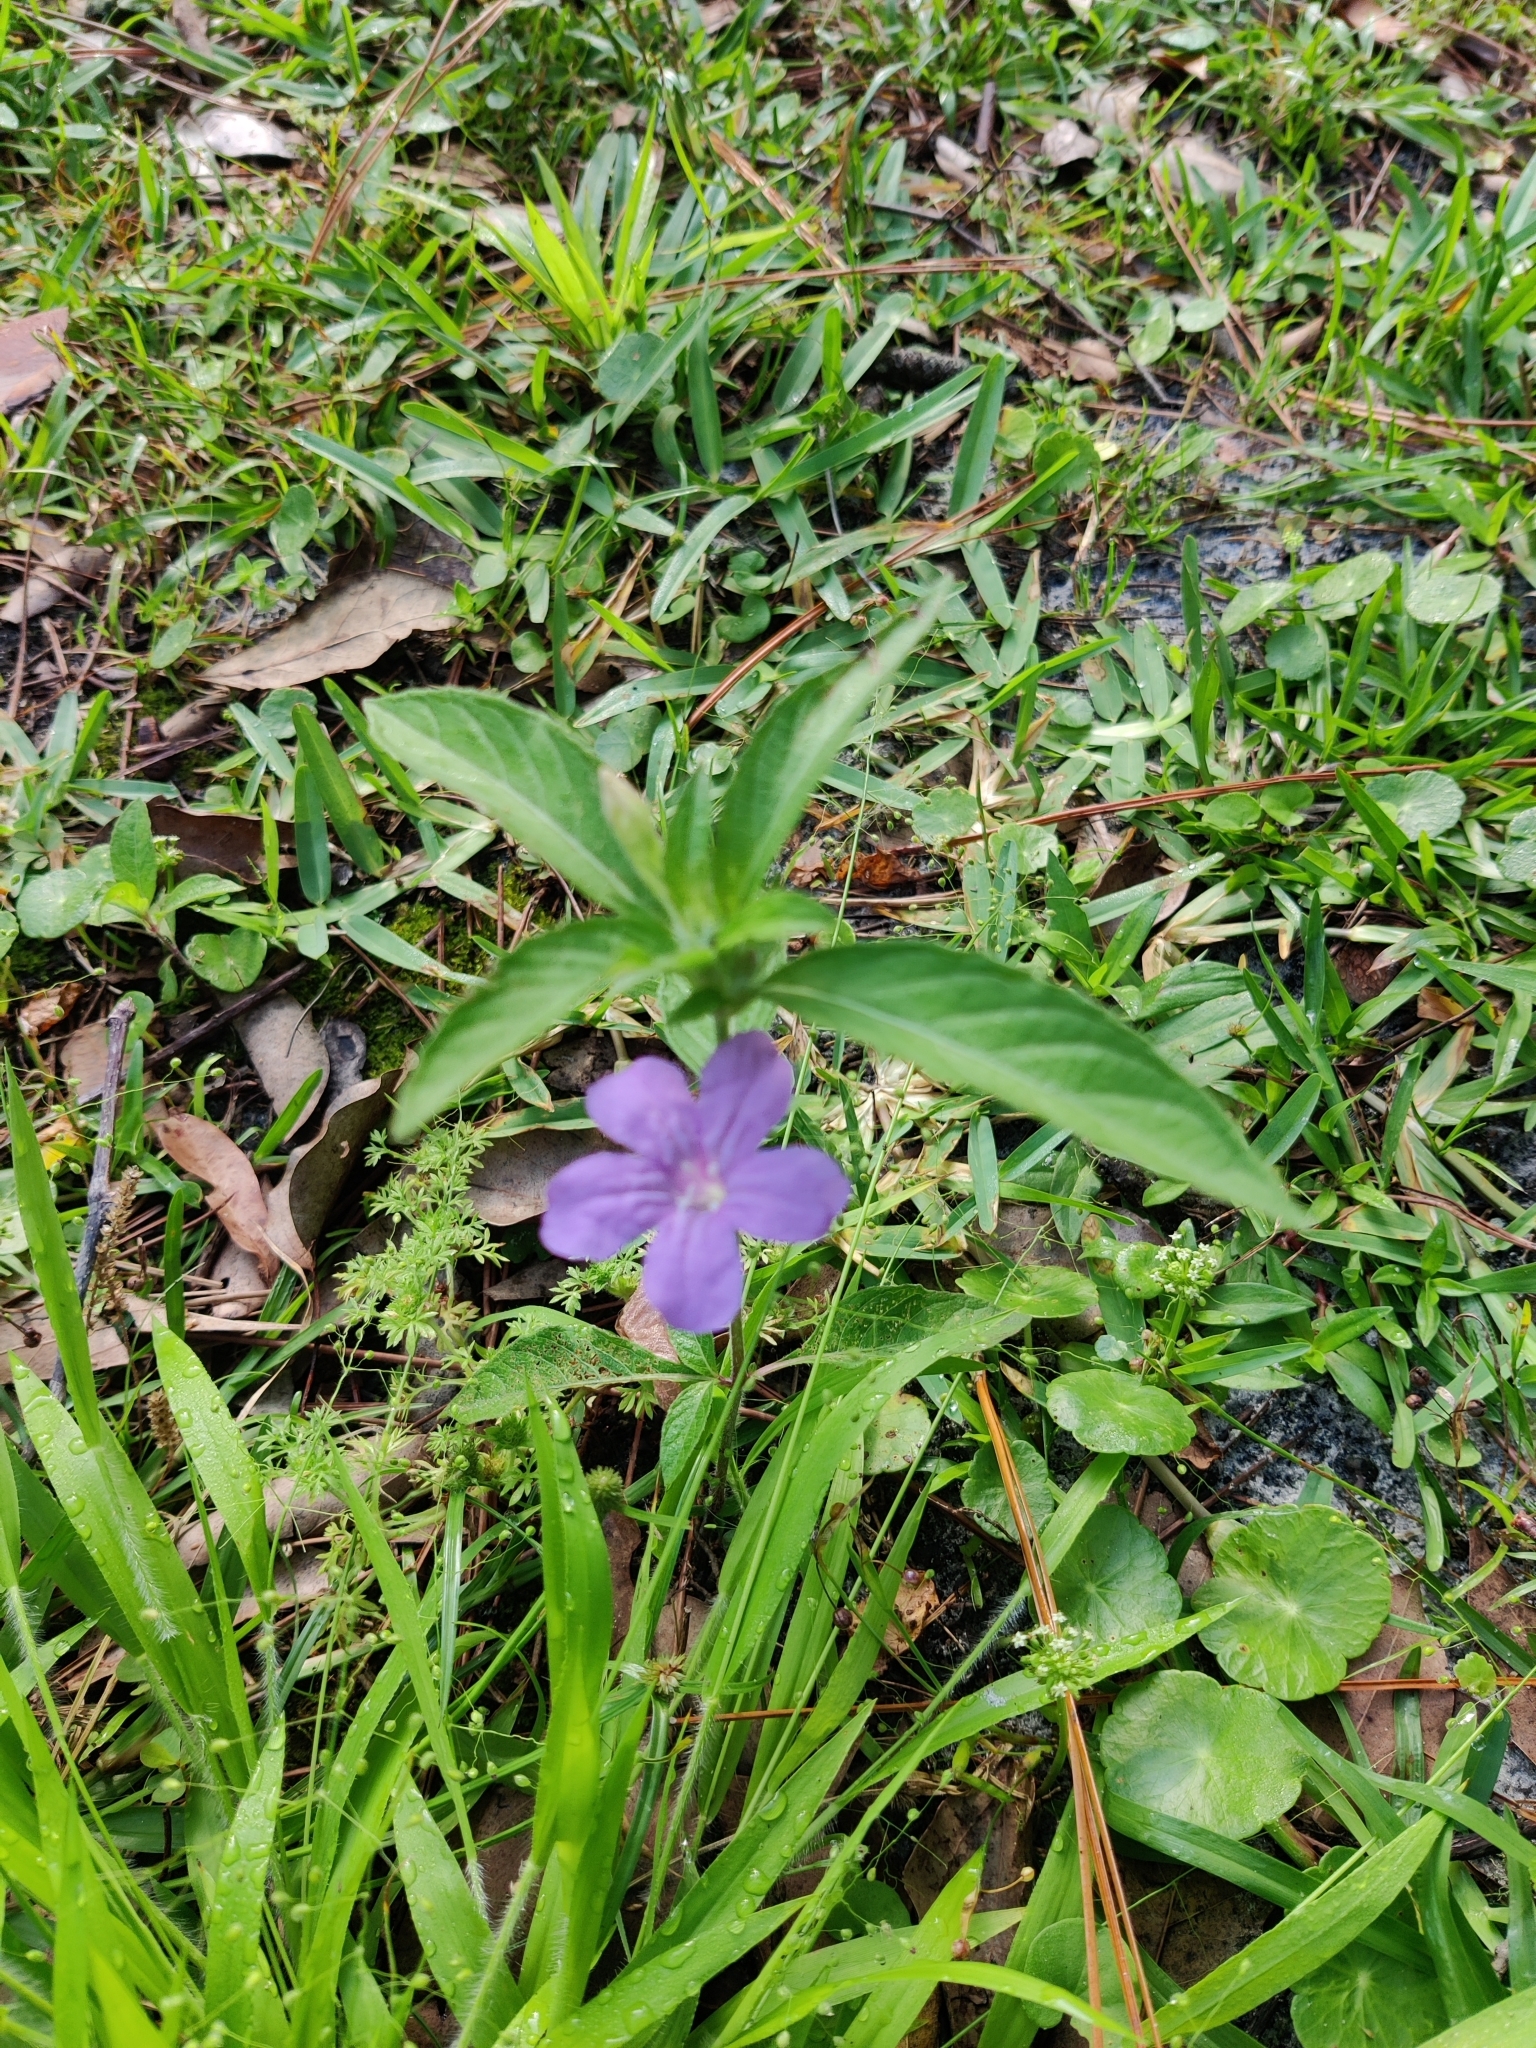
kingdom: Plantae
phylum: Tracheophyta
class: Magnoliopsida
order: Lamiales
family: Acanthaceae
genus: Ruellia
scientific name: Ruellia caroliniensis
